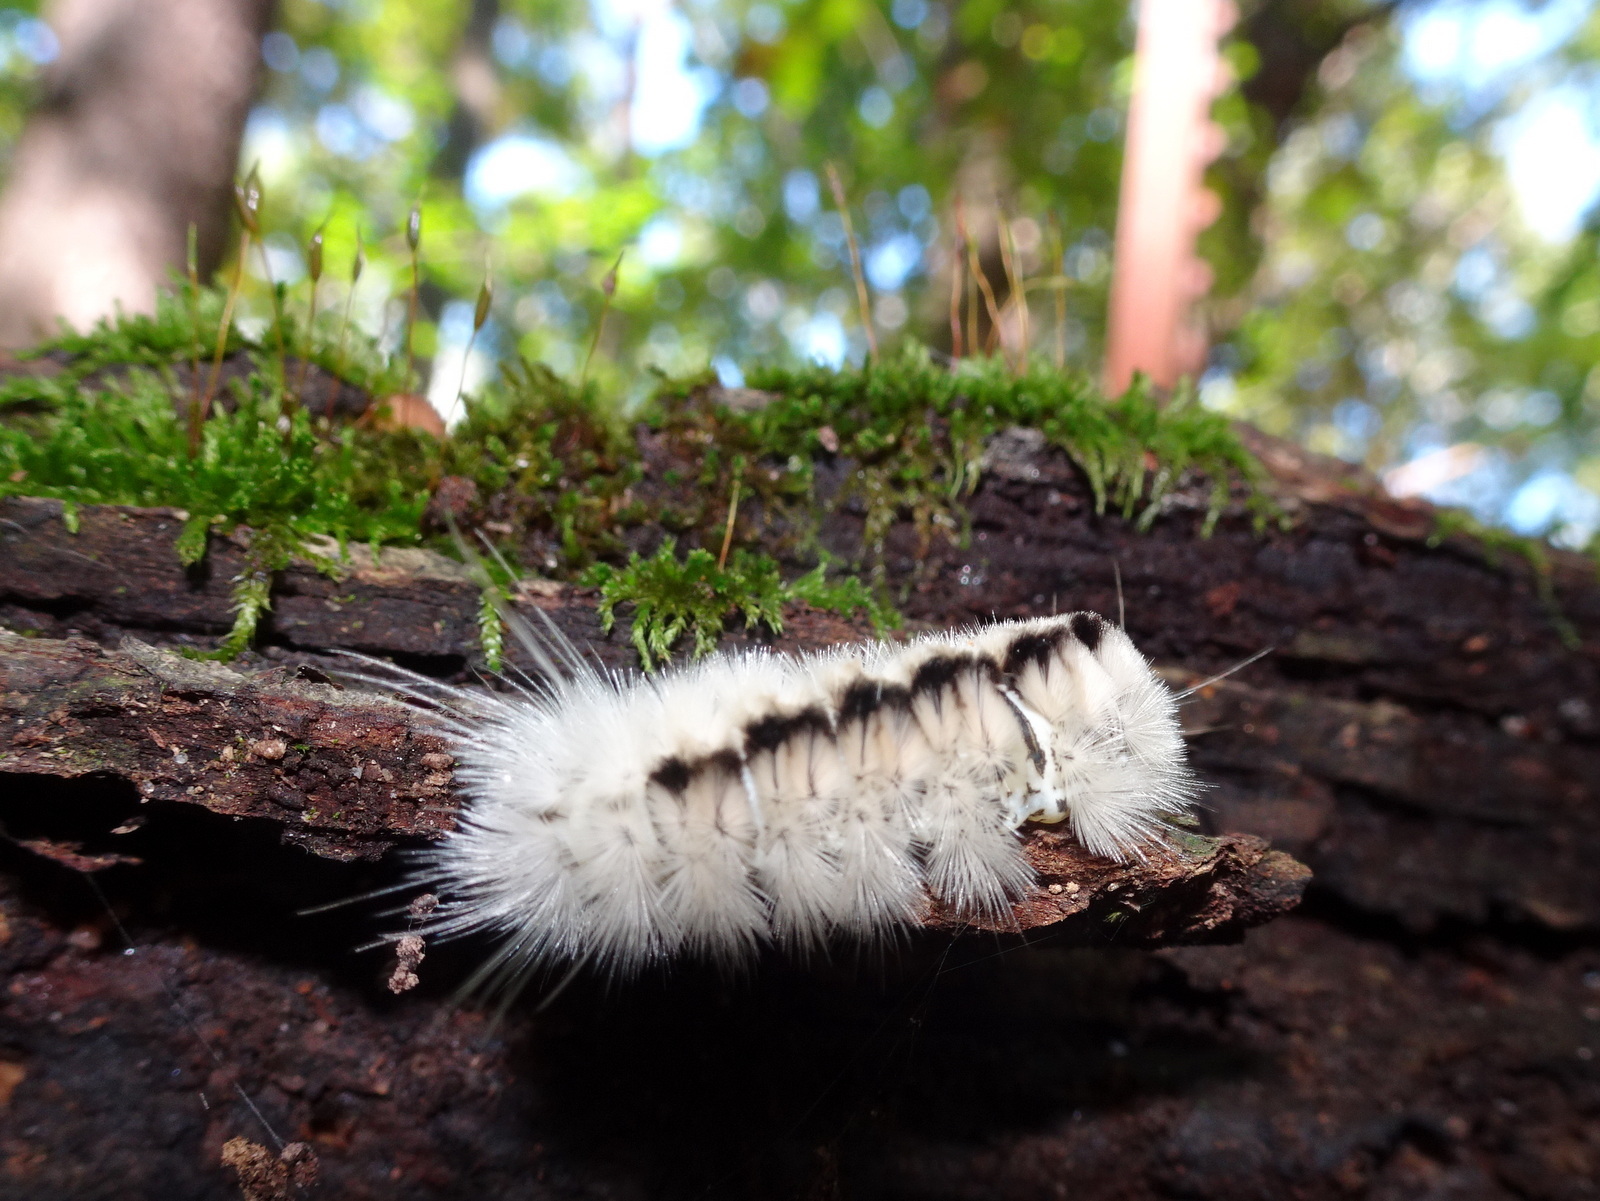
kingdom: Animalia
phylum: Arthropoda
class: Insecta
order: Lepidoptera
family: Erebidae
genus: Lophocampa
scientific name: Lophocampa caryae
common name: Hickory tussock moth
